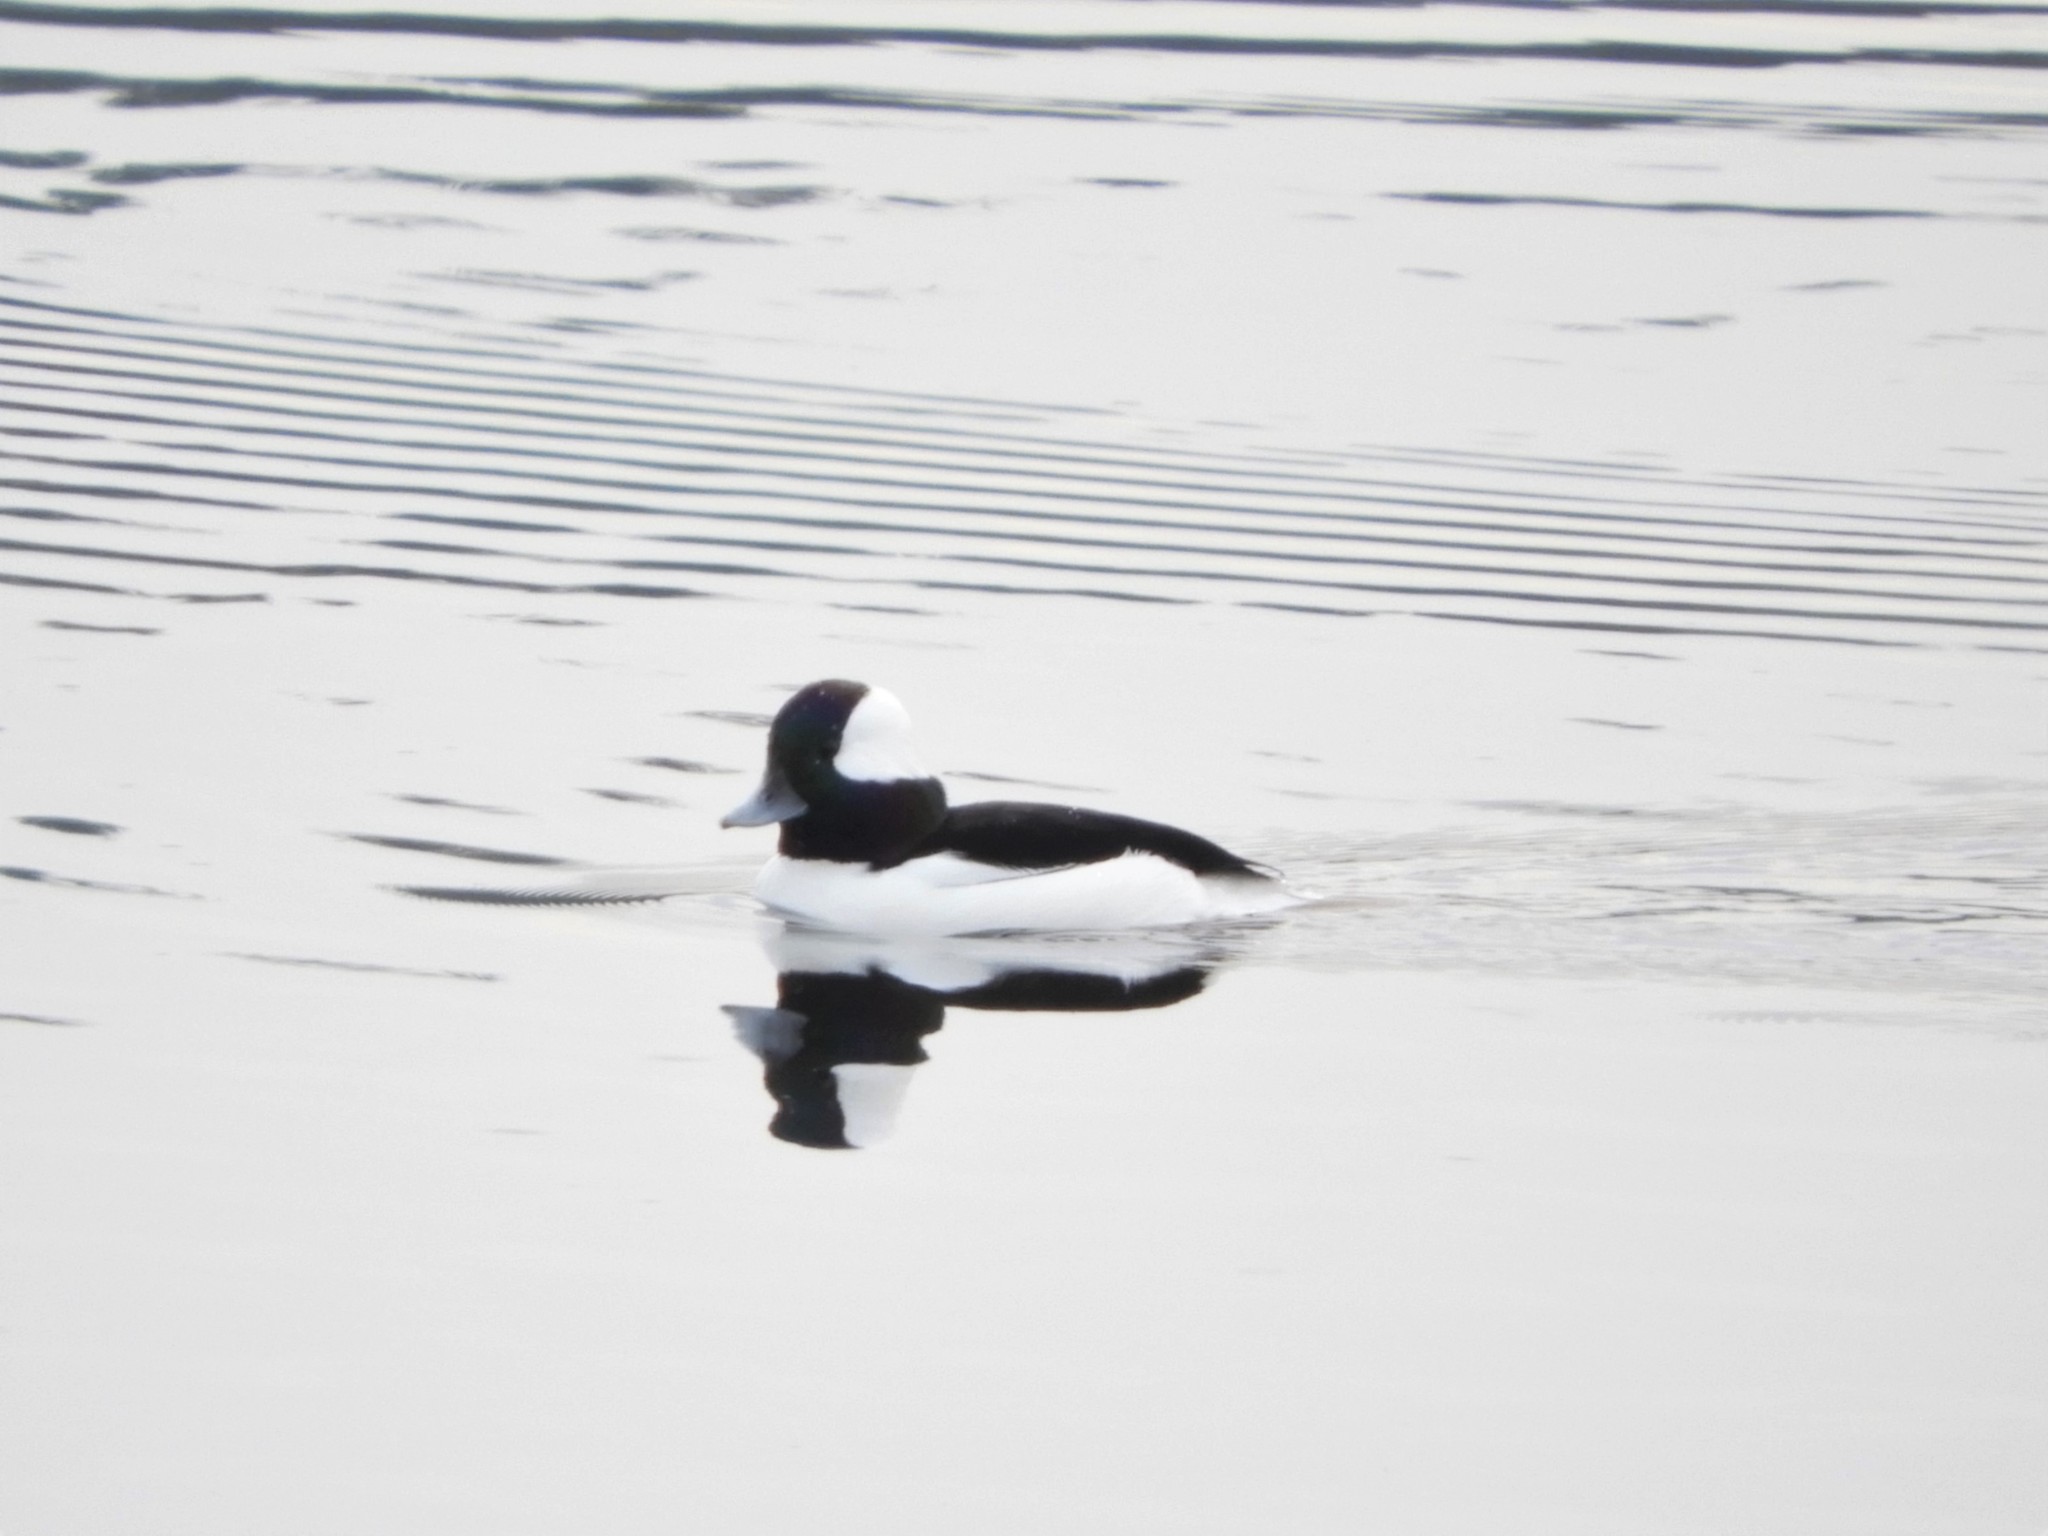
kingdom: Animalia
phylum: Chordata
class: Aves
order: Anseriformes
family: Anatidae
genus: Bucephala
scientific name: Bucephala albeola
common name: Bufflehead
